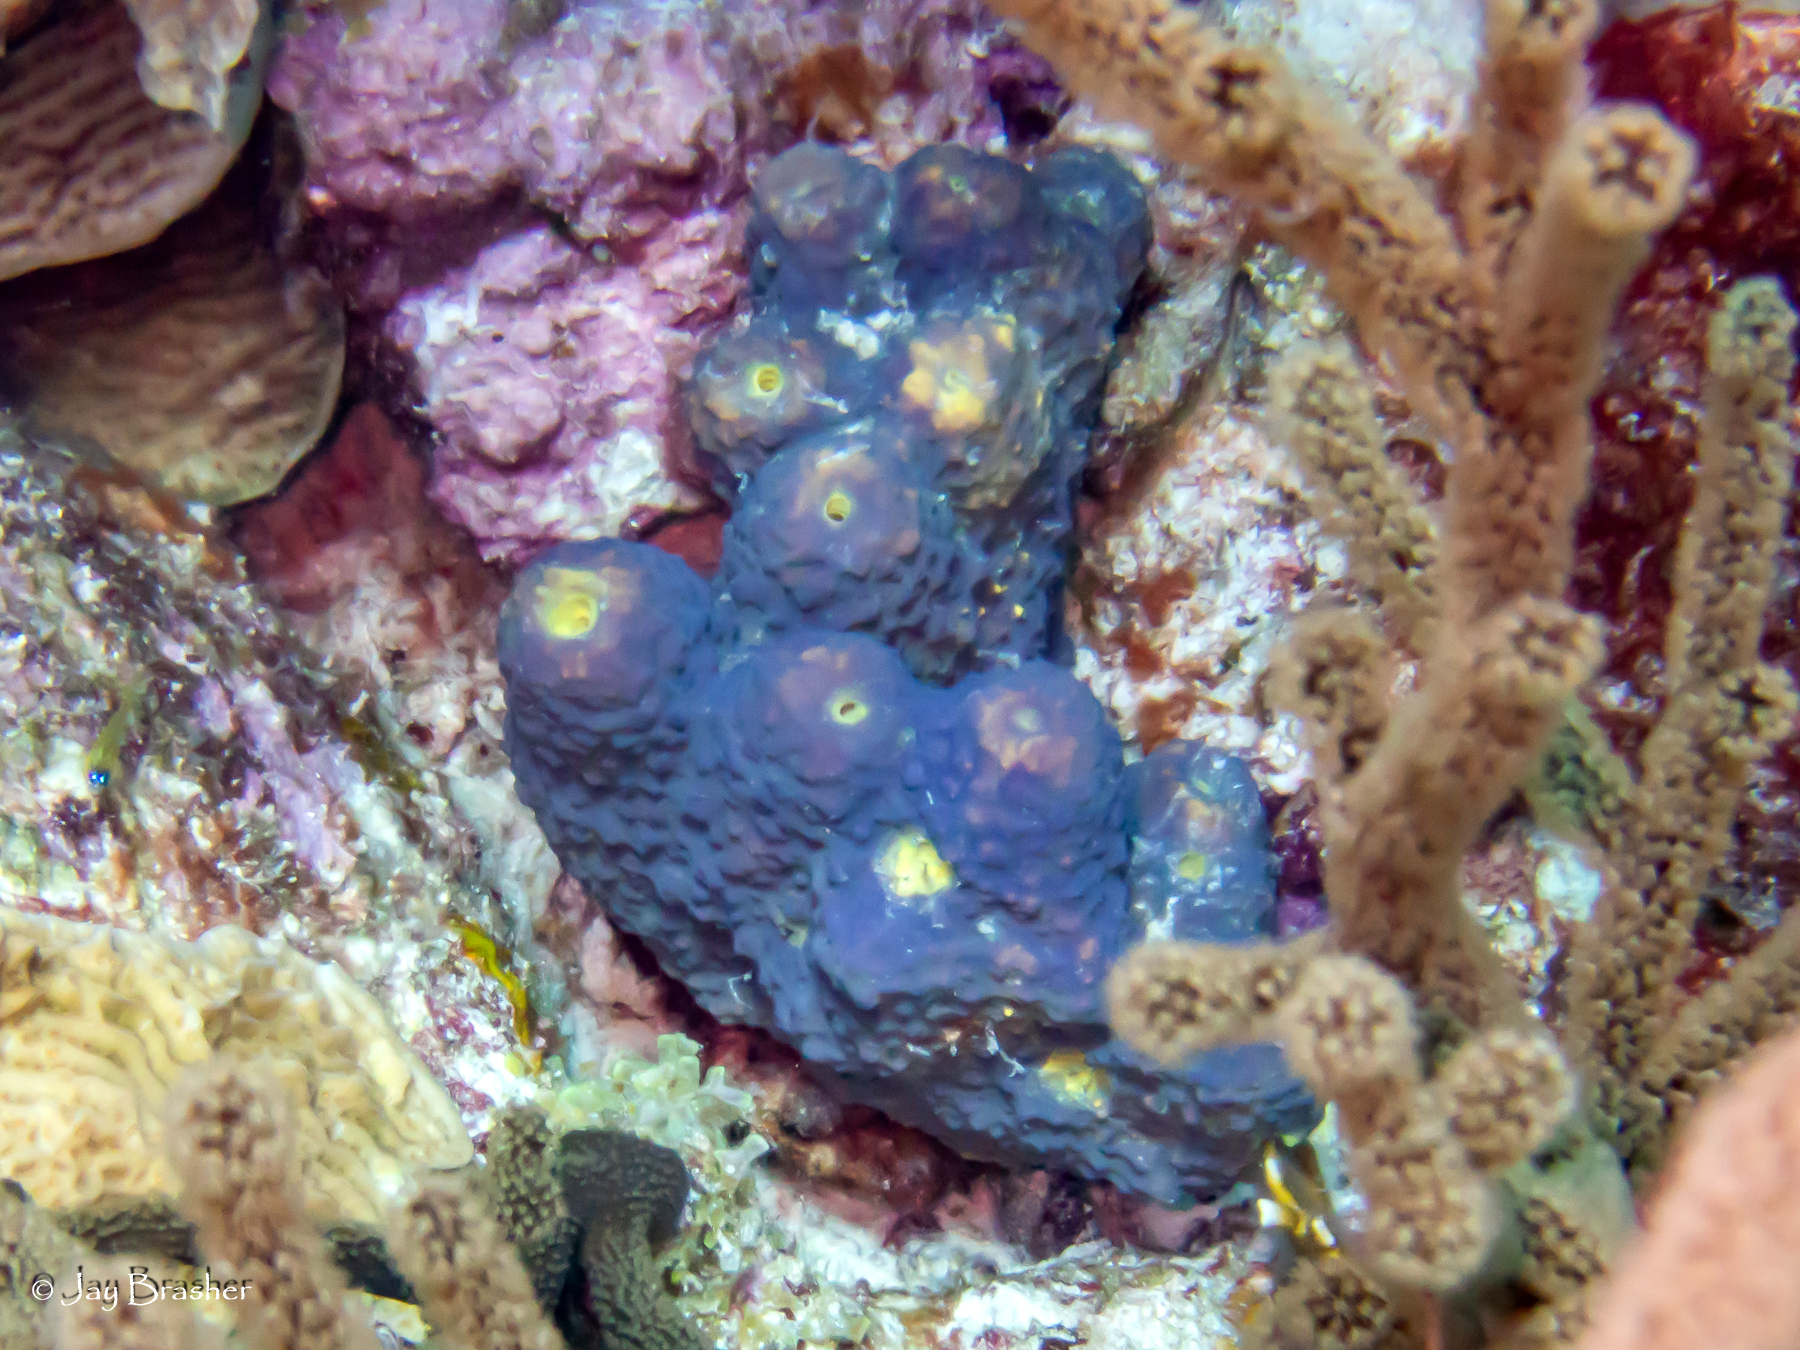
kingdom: Animalia
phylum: Porifera
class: Demospongiae
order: Verongiida
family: Aplysinidae
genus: Aiolochroia
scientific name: Aiolochroia crassa
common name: Branching tube sponge
